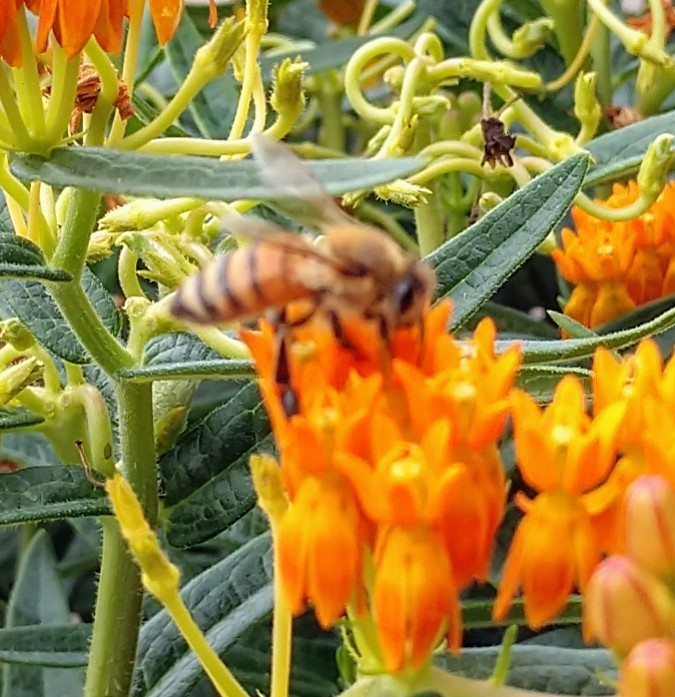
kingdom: Animalia
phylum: Arthropoda
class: Insecta
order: Hymenoptera
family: Apidae
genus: Apis
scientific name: Apis mellifera
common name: Honey bee
